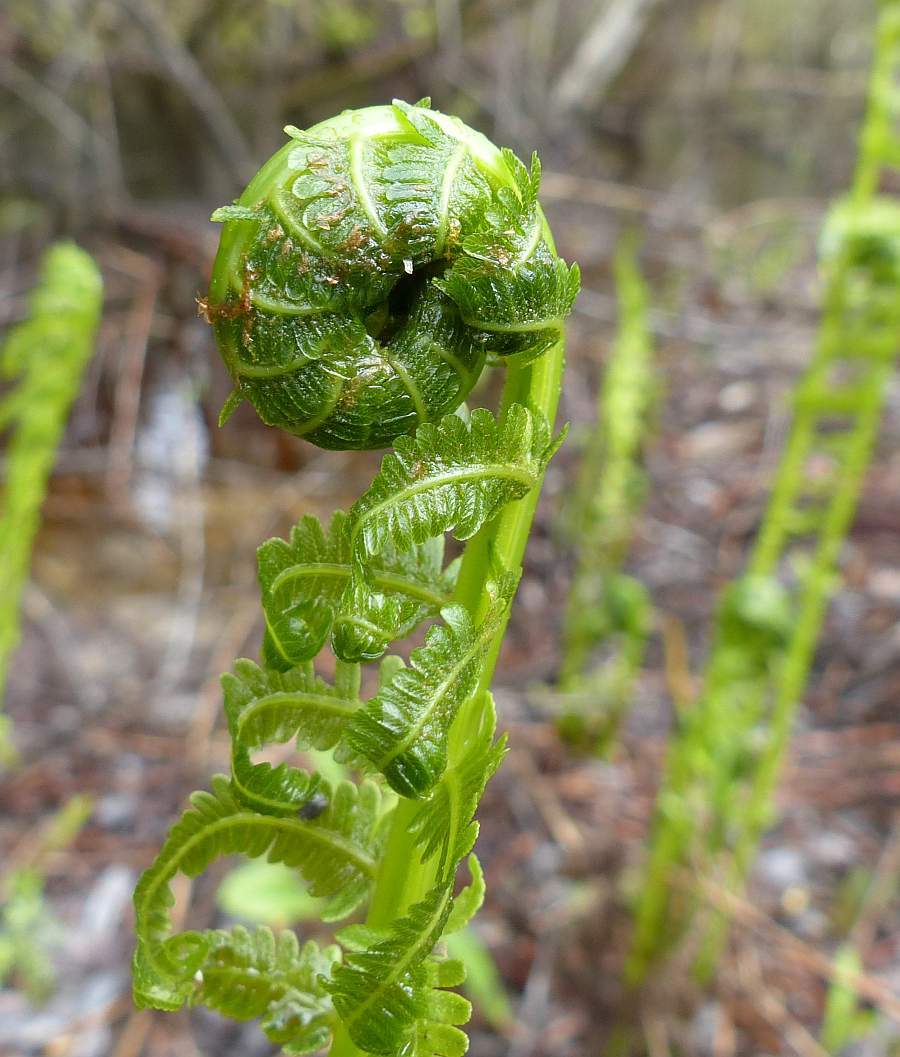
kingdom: Plantae
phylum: Tracheophyta
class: Polypodiopsida
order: Polypodiales
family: Onocleaceae
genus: Matteuccia
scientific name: Matteuccia struthiopteris
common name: Ostrich fern
